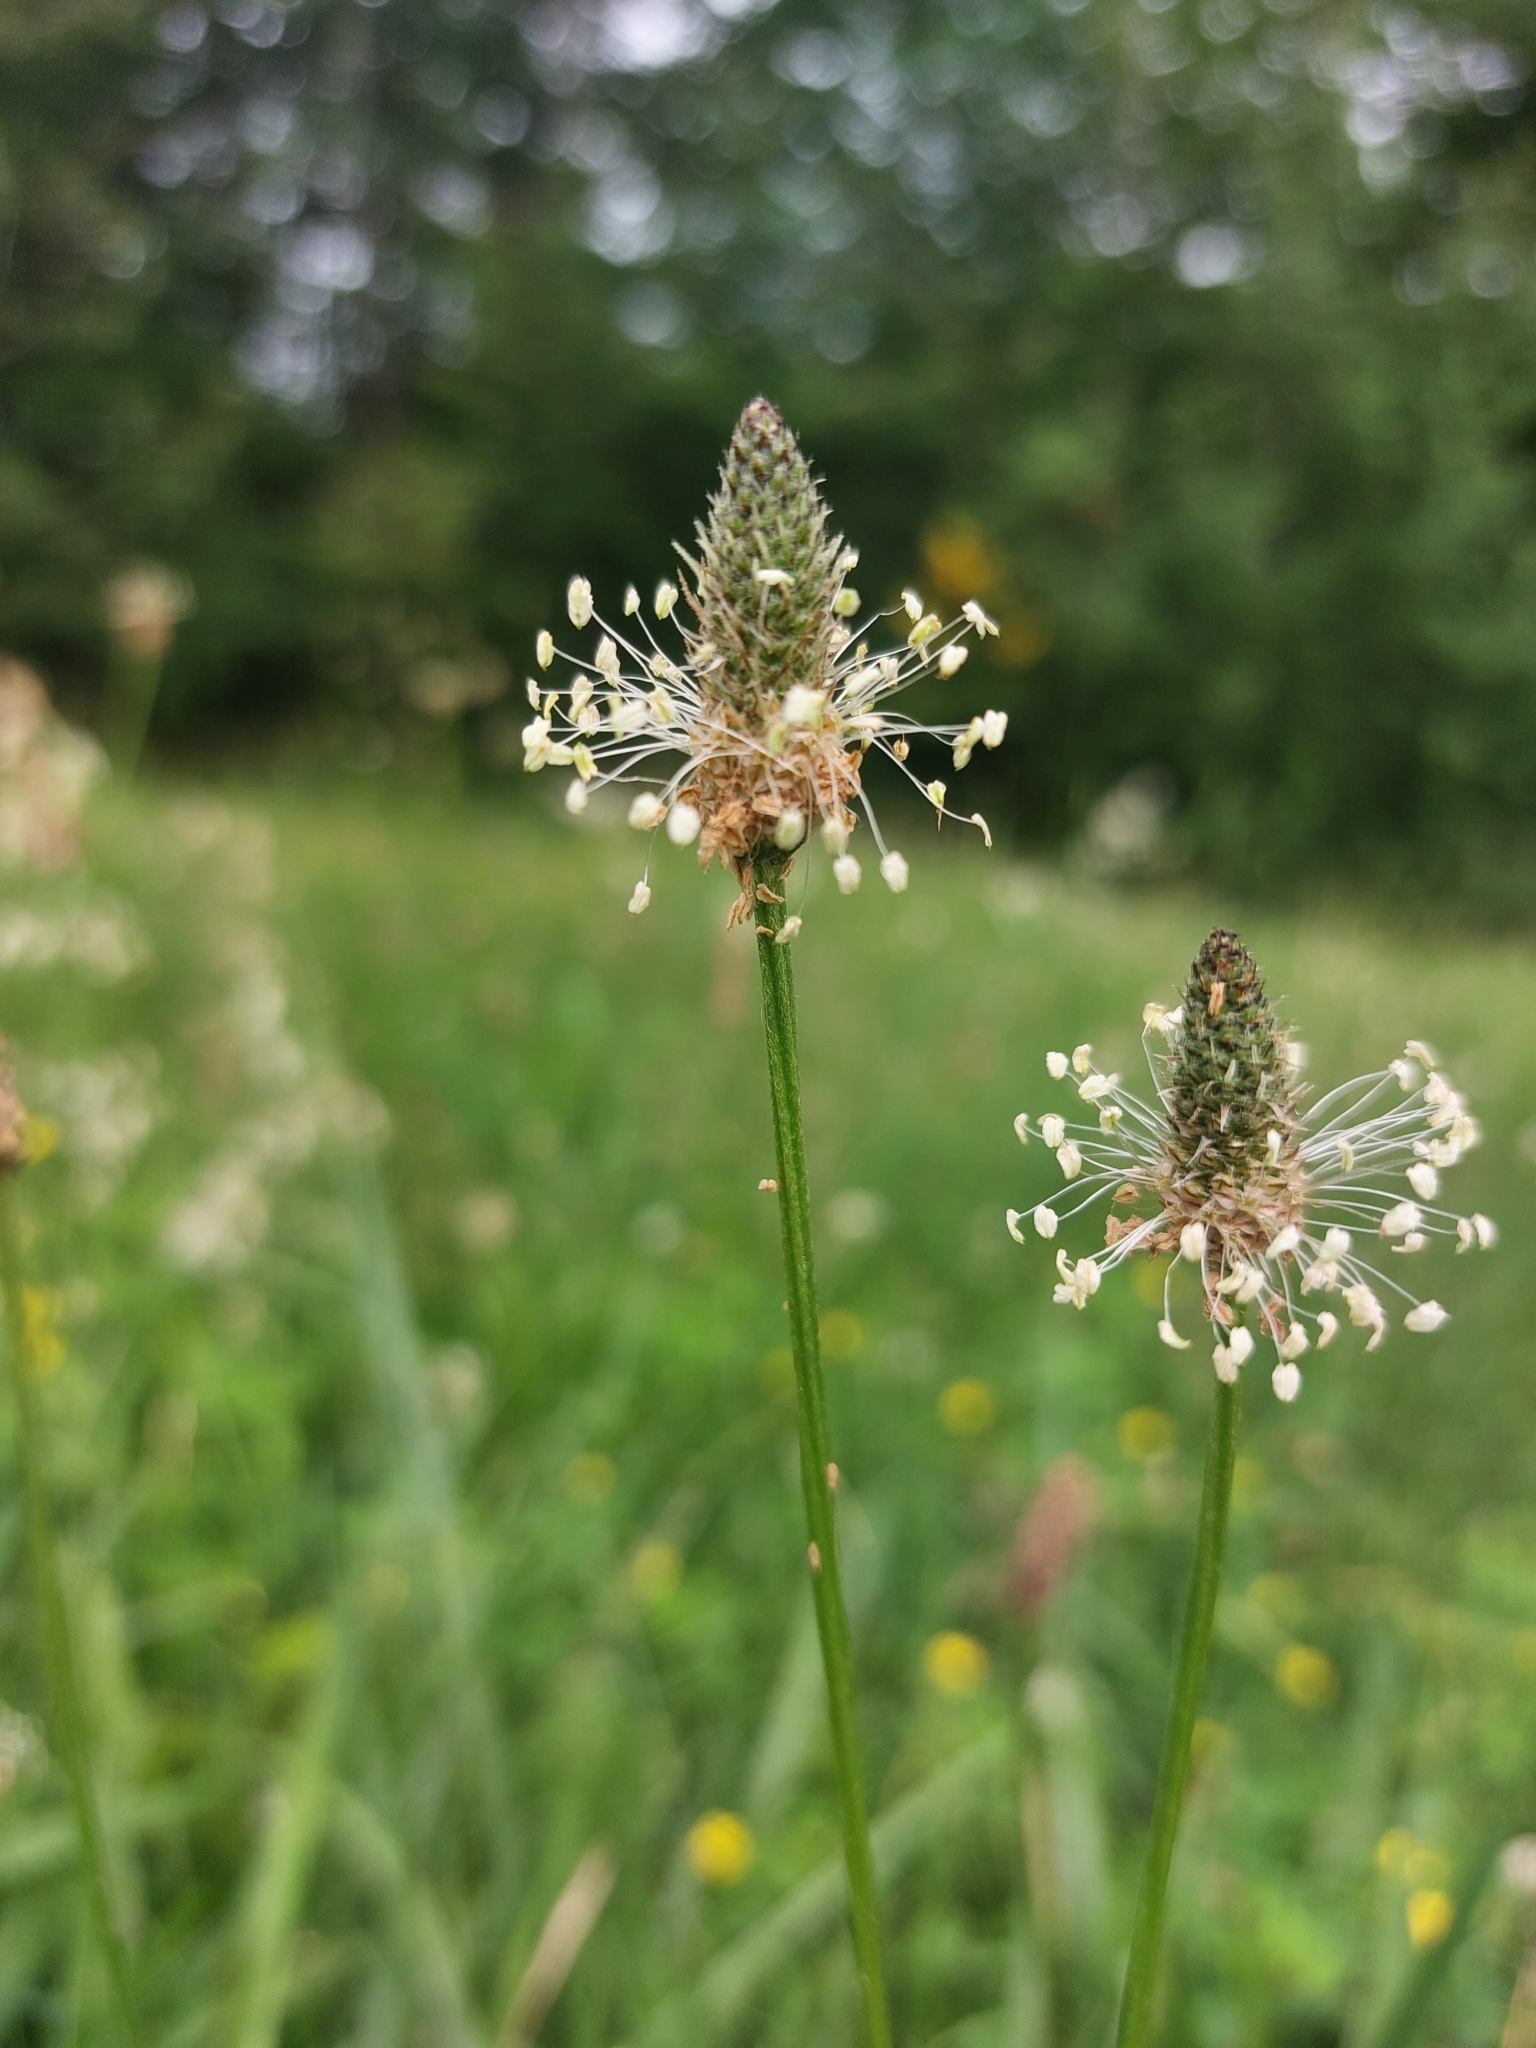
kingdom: Plantae
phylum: Tracheophyta
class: Magnoliopsida
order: Lamiales
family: Plantaginaceae
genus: Plantago
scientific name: Plantago lanceolata
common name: Ribwort plantain
